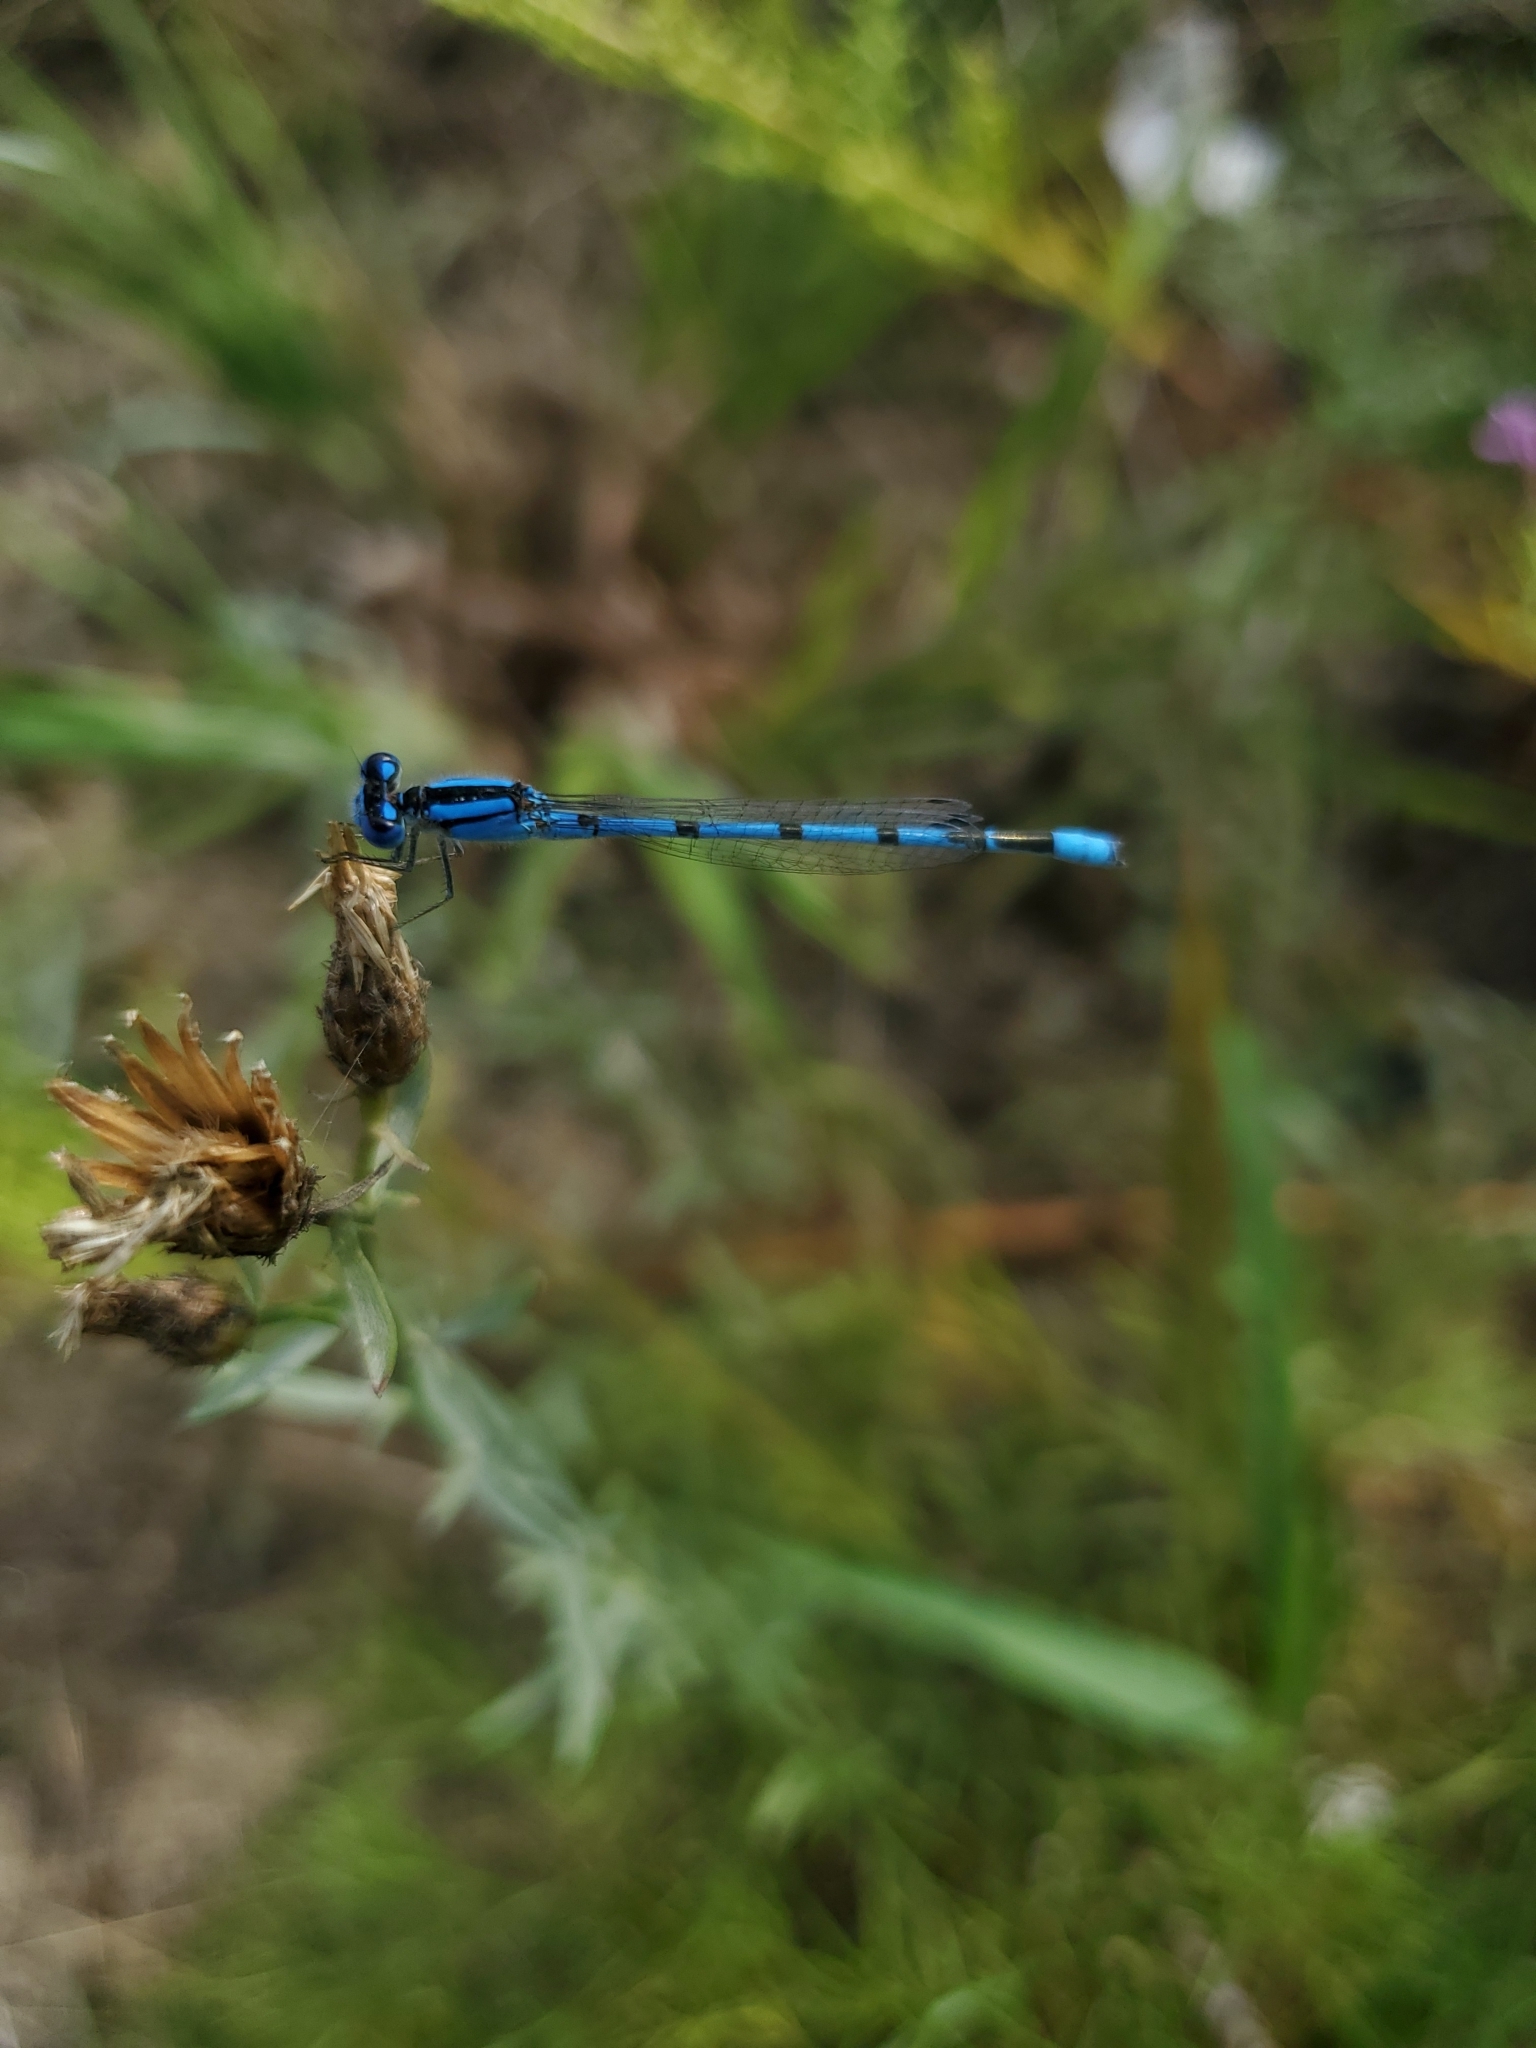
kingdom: Animalia
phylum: Arthropoda
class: Insecta
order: Odonata
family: Coenagrionidae
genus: Enallagma
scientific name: Enallagma civile
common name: Damselfly
